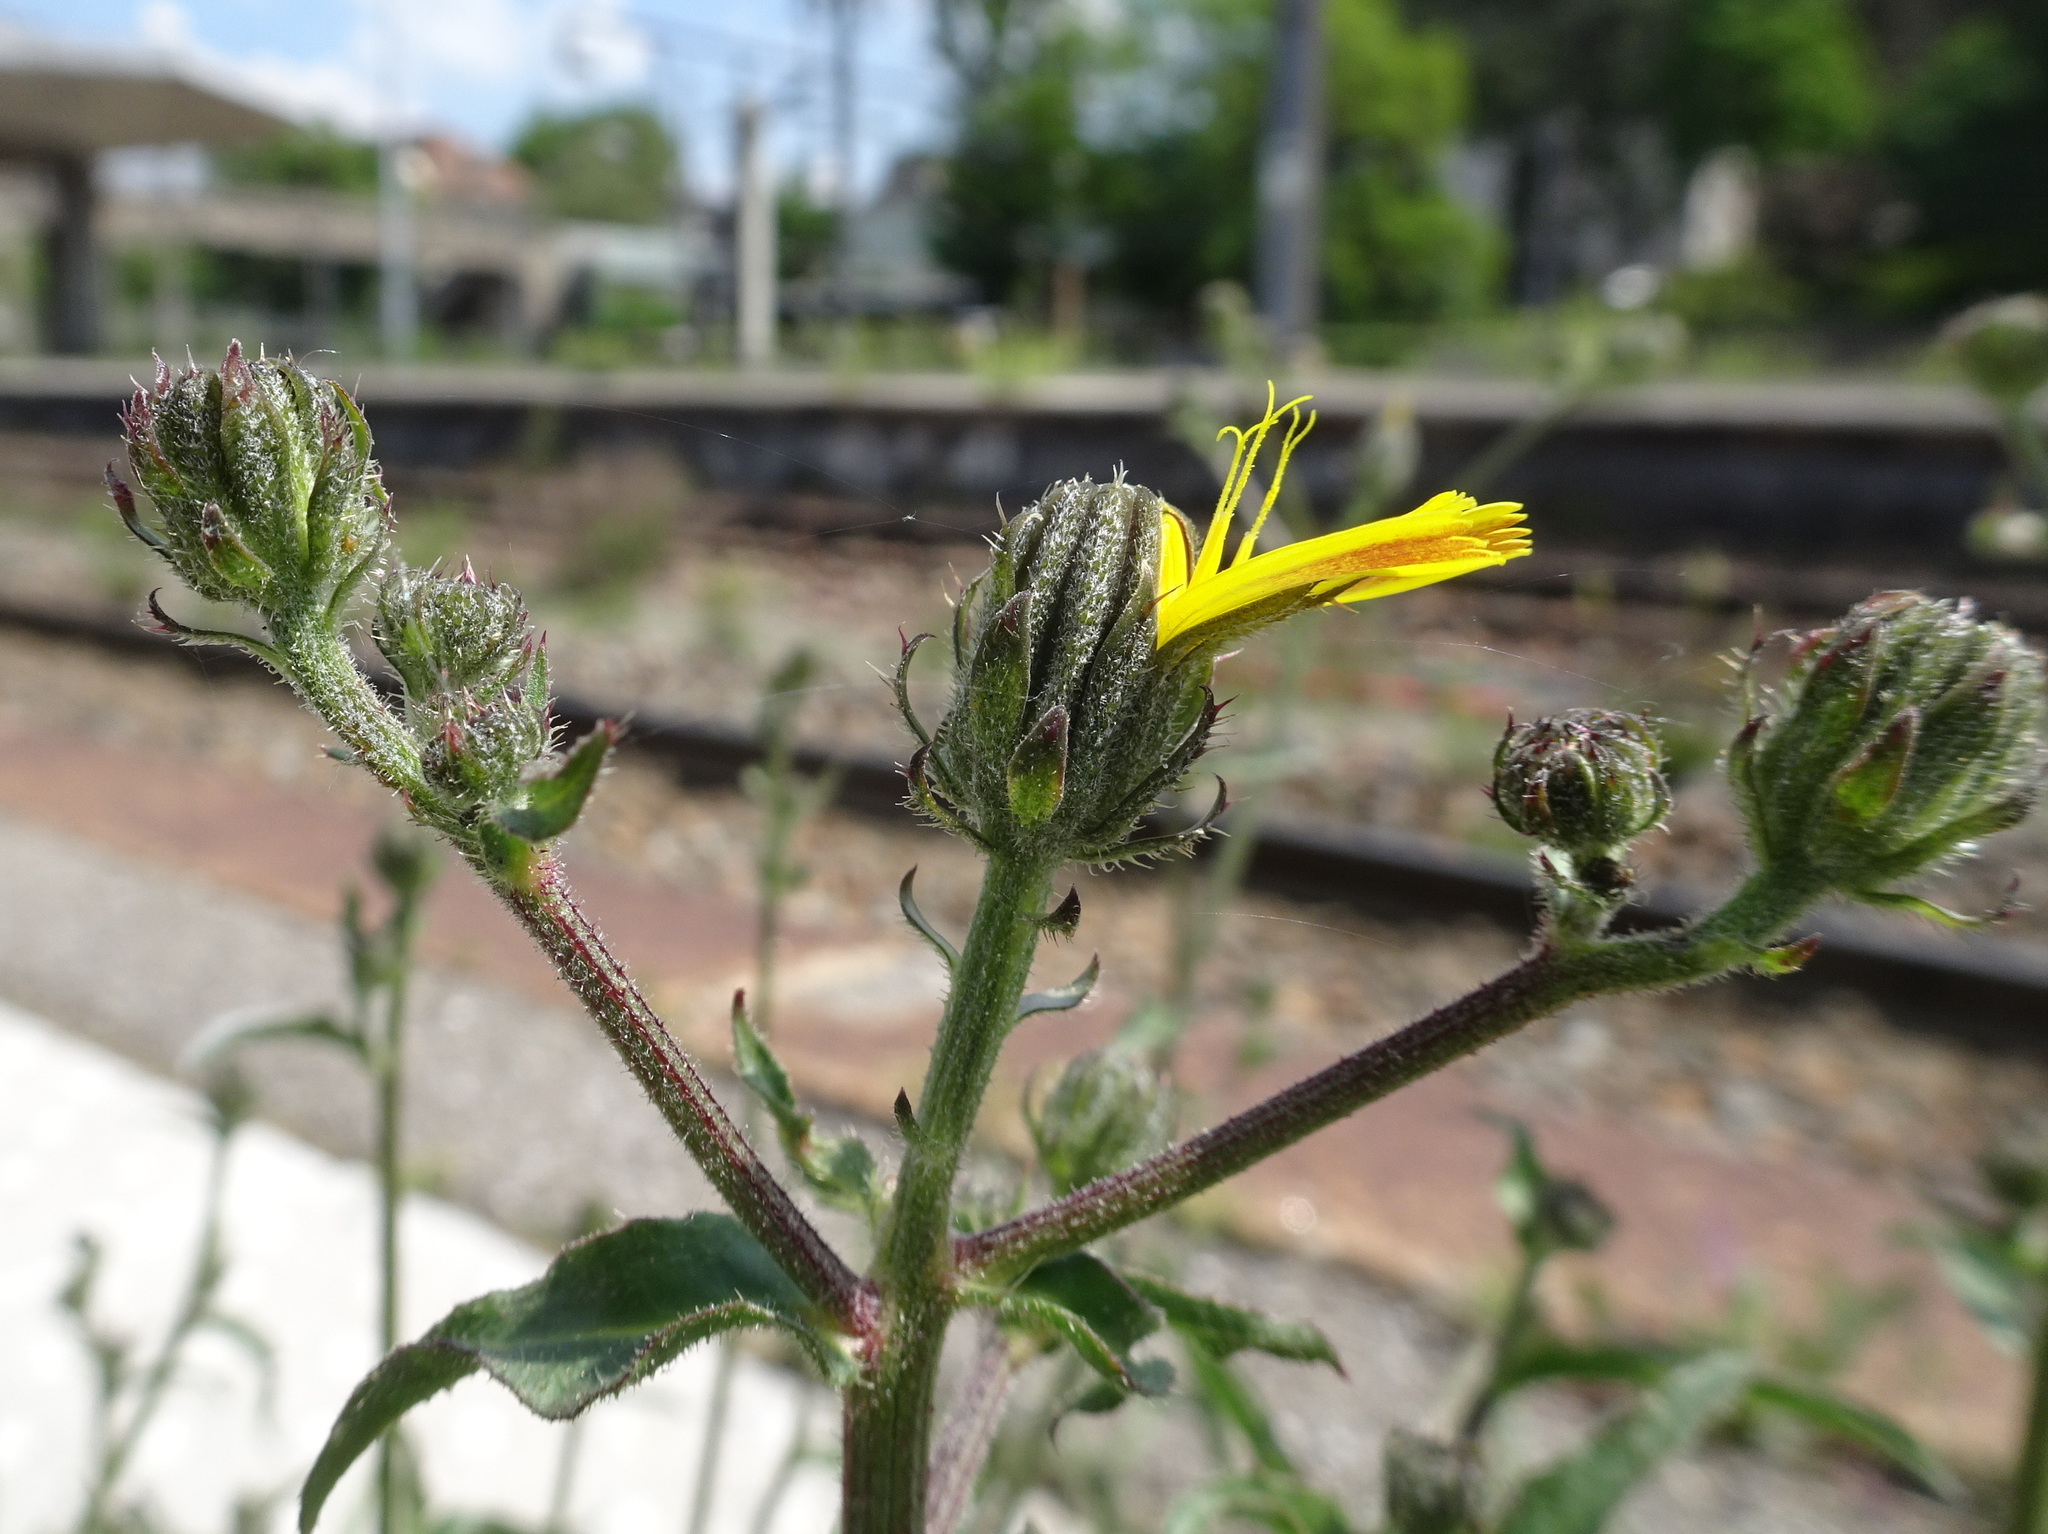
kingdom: Plantae
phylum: Tracheophyta
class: Magnoliopsida
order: Asterales
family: Asteraceae
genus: Picris
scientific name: Picris hieracioides
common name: Hawkweed oxtongue
